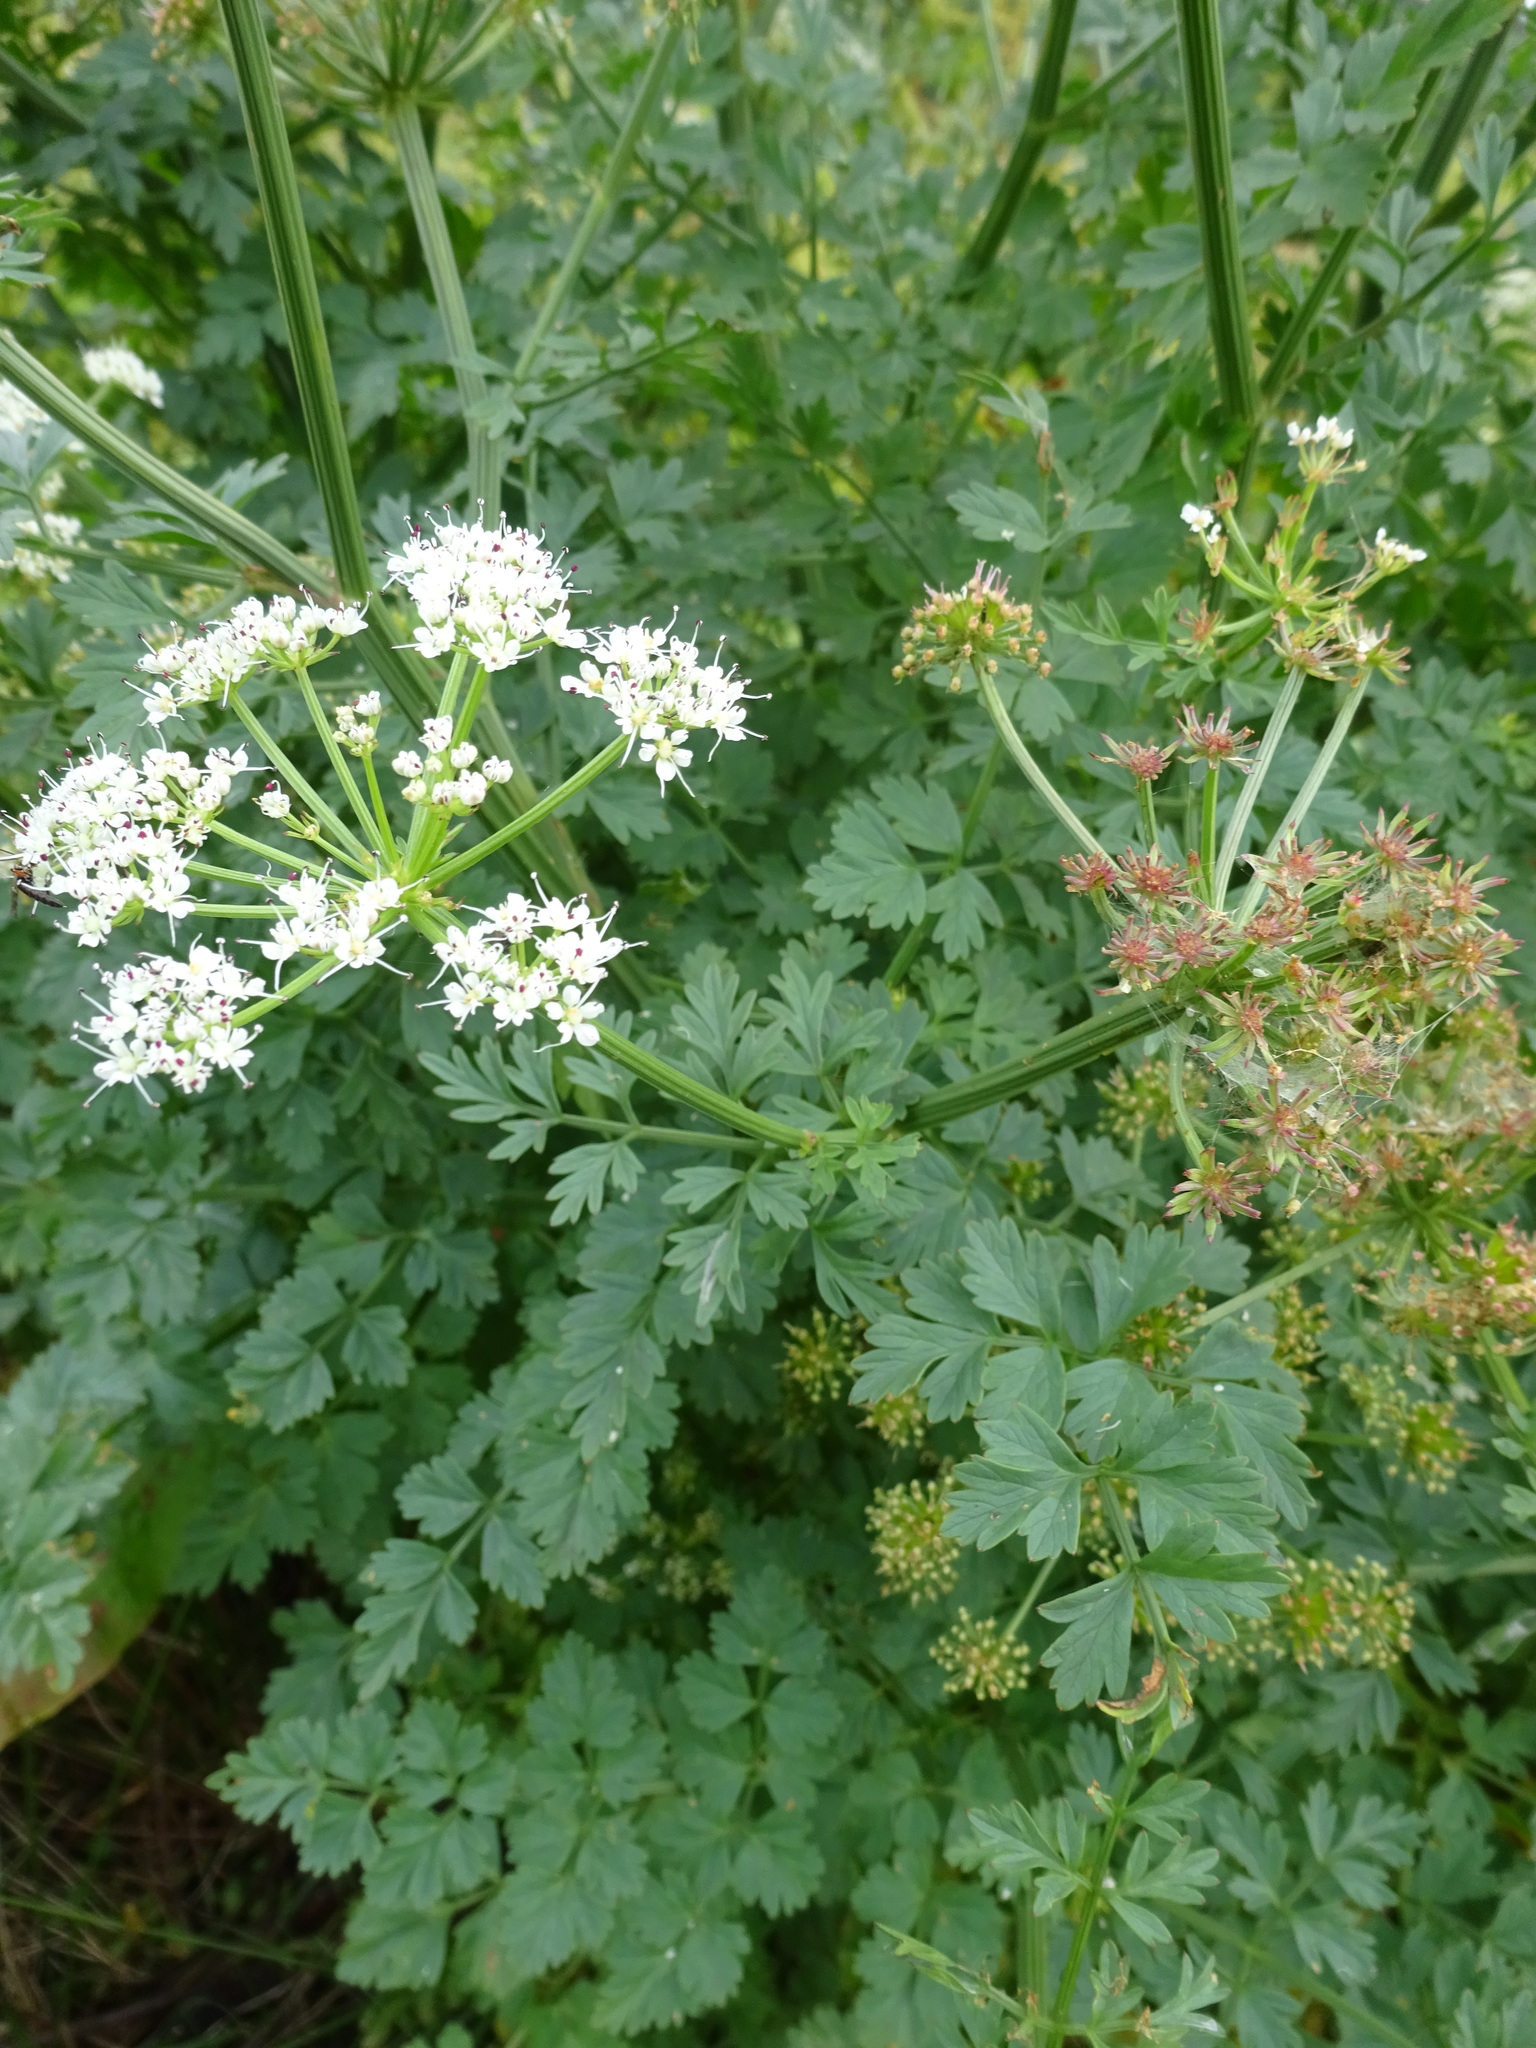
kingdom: Plantae
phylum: Tracheophyta
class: Magnoliopsida
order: Apiales
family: Apiaceae
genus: Oenanthe
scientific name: Oenanthe crocata
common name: Hemlock water-dropwort
